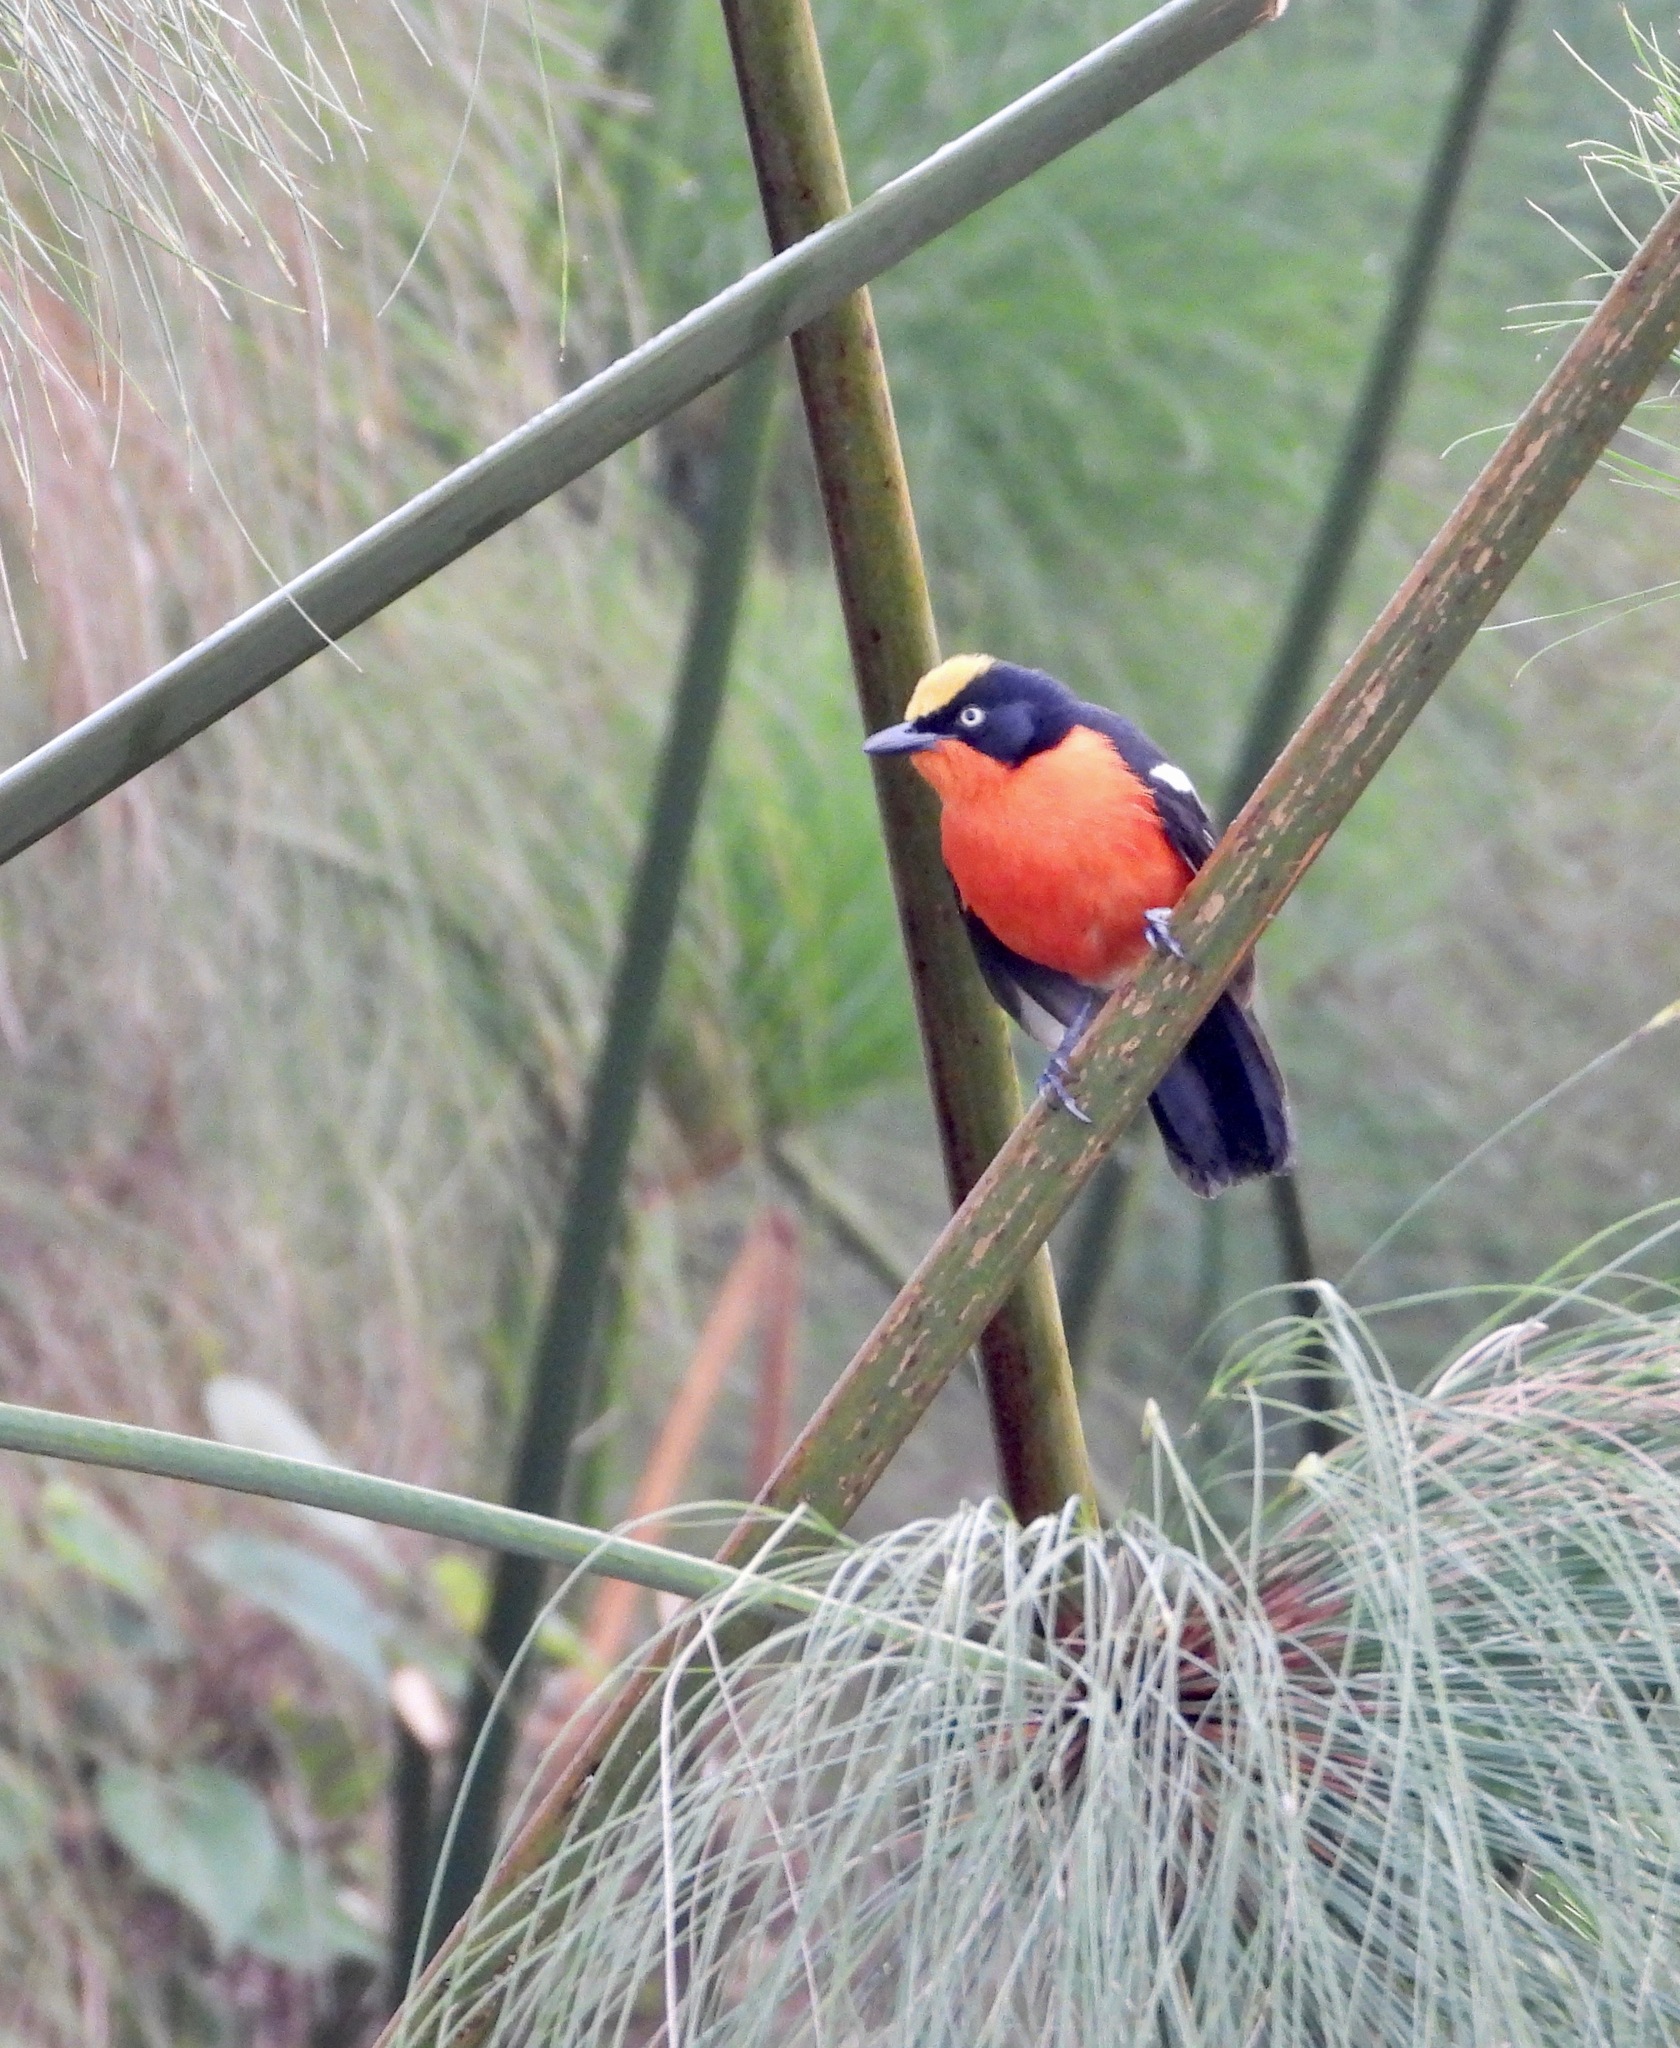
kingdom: Animalia
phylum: Chordata
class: Aves
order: Passeriformes
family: Malaconotidae
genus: Laniarius
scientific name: Laniarius mufumbiri
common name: Papyrus gonolek
